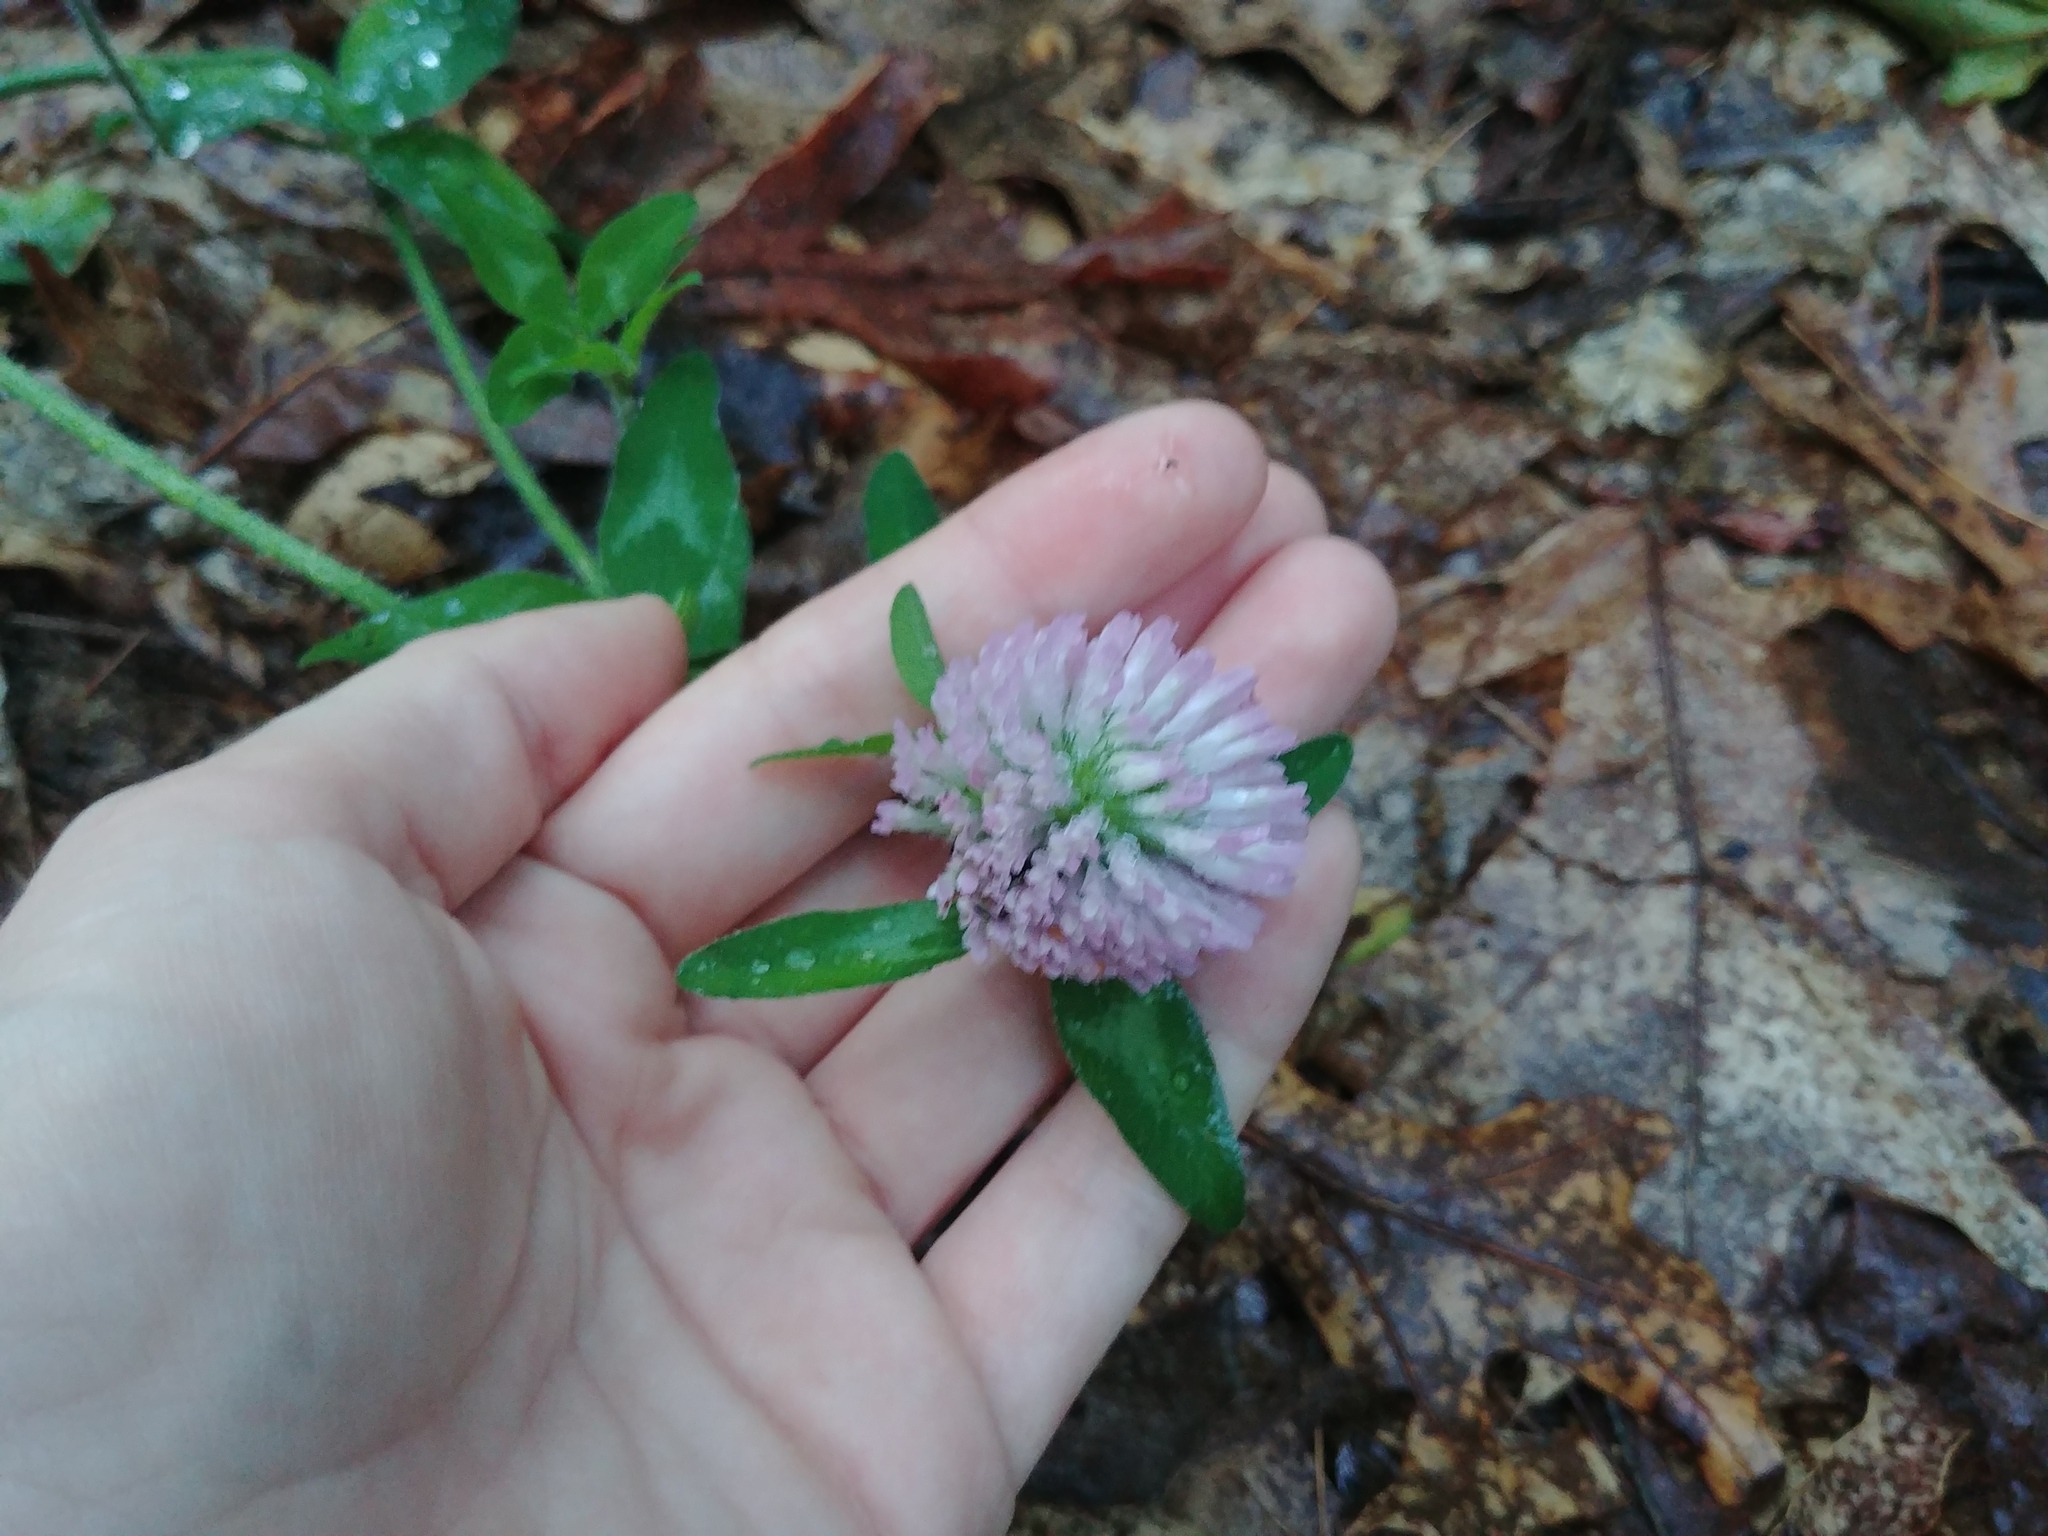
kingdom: Plantae
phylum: Tracheophyta
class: Magnoliopsida
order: Fabales
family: Fabaceae
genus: Trifolium
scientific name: Trifolium pratense
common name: Red clover
